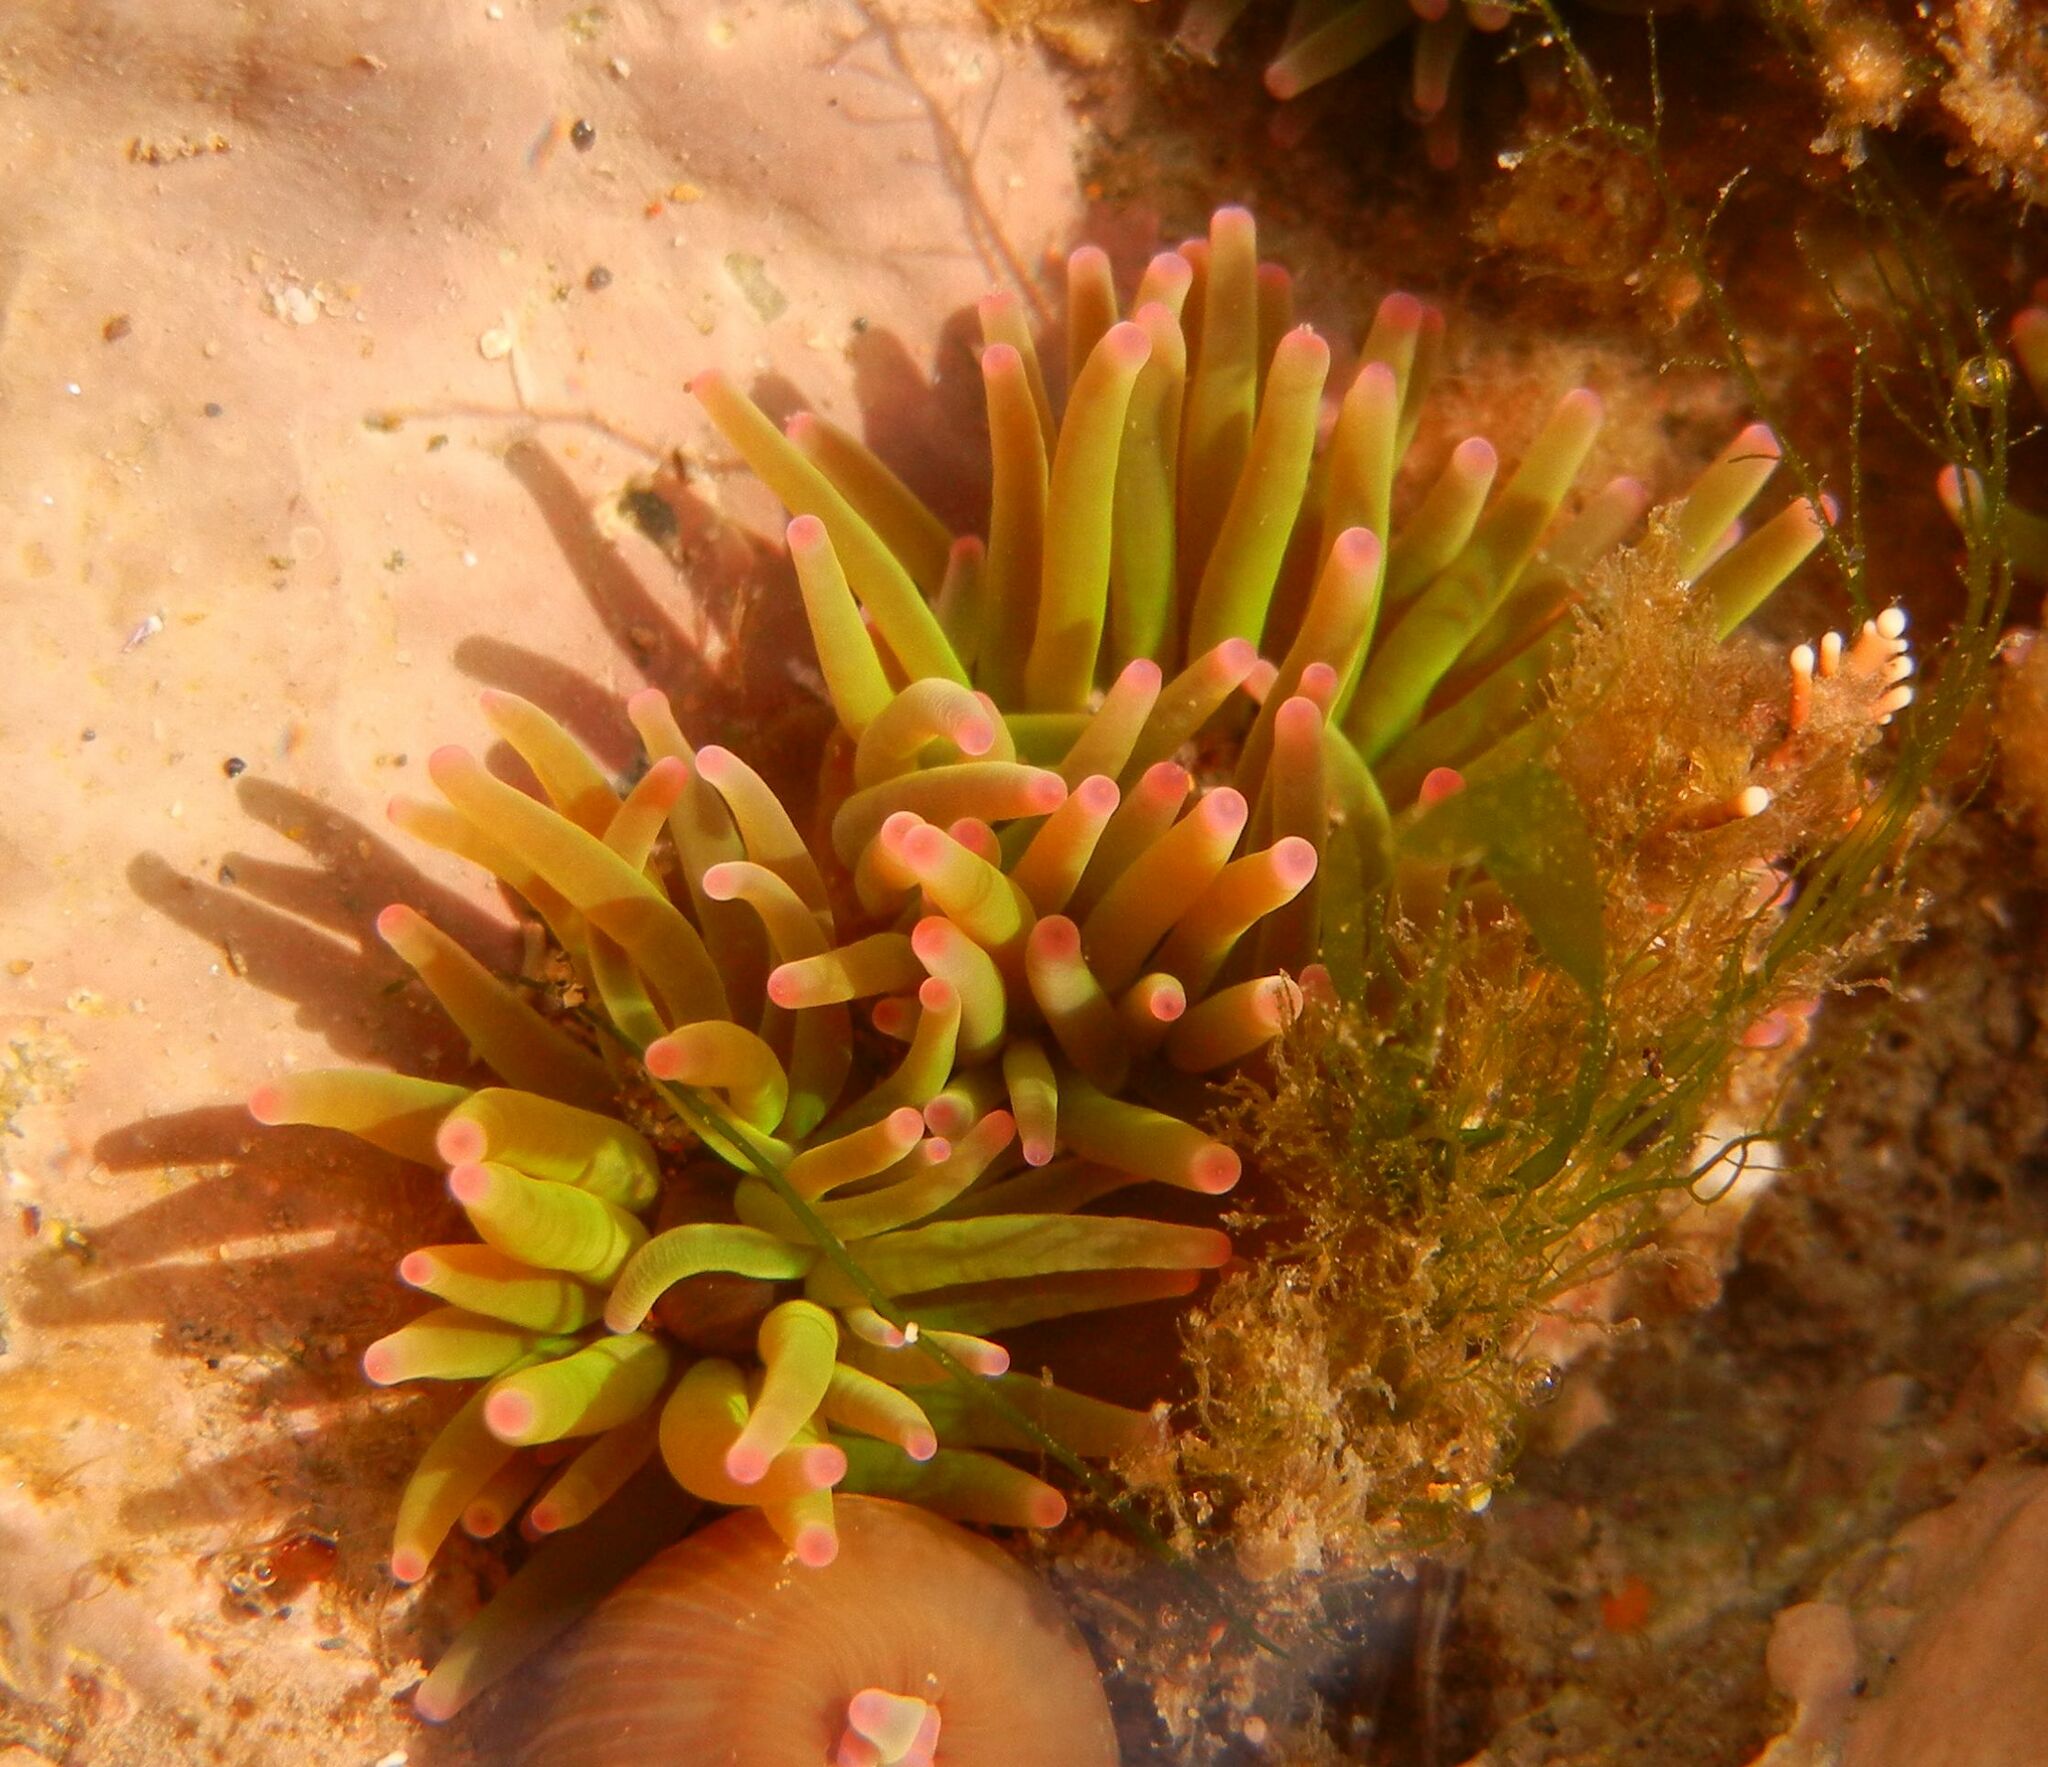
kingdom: Animalia
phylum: Cnidaria
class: Anthozoa
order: Actiniaria
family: Actiniidae
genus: Anemonia
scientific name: Anemonia viridis
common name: Snakelocks anemone
